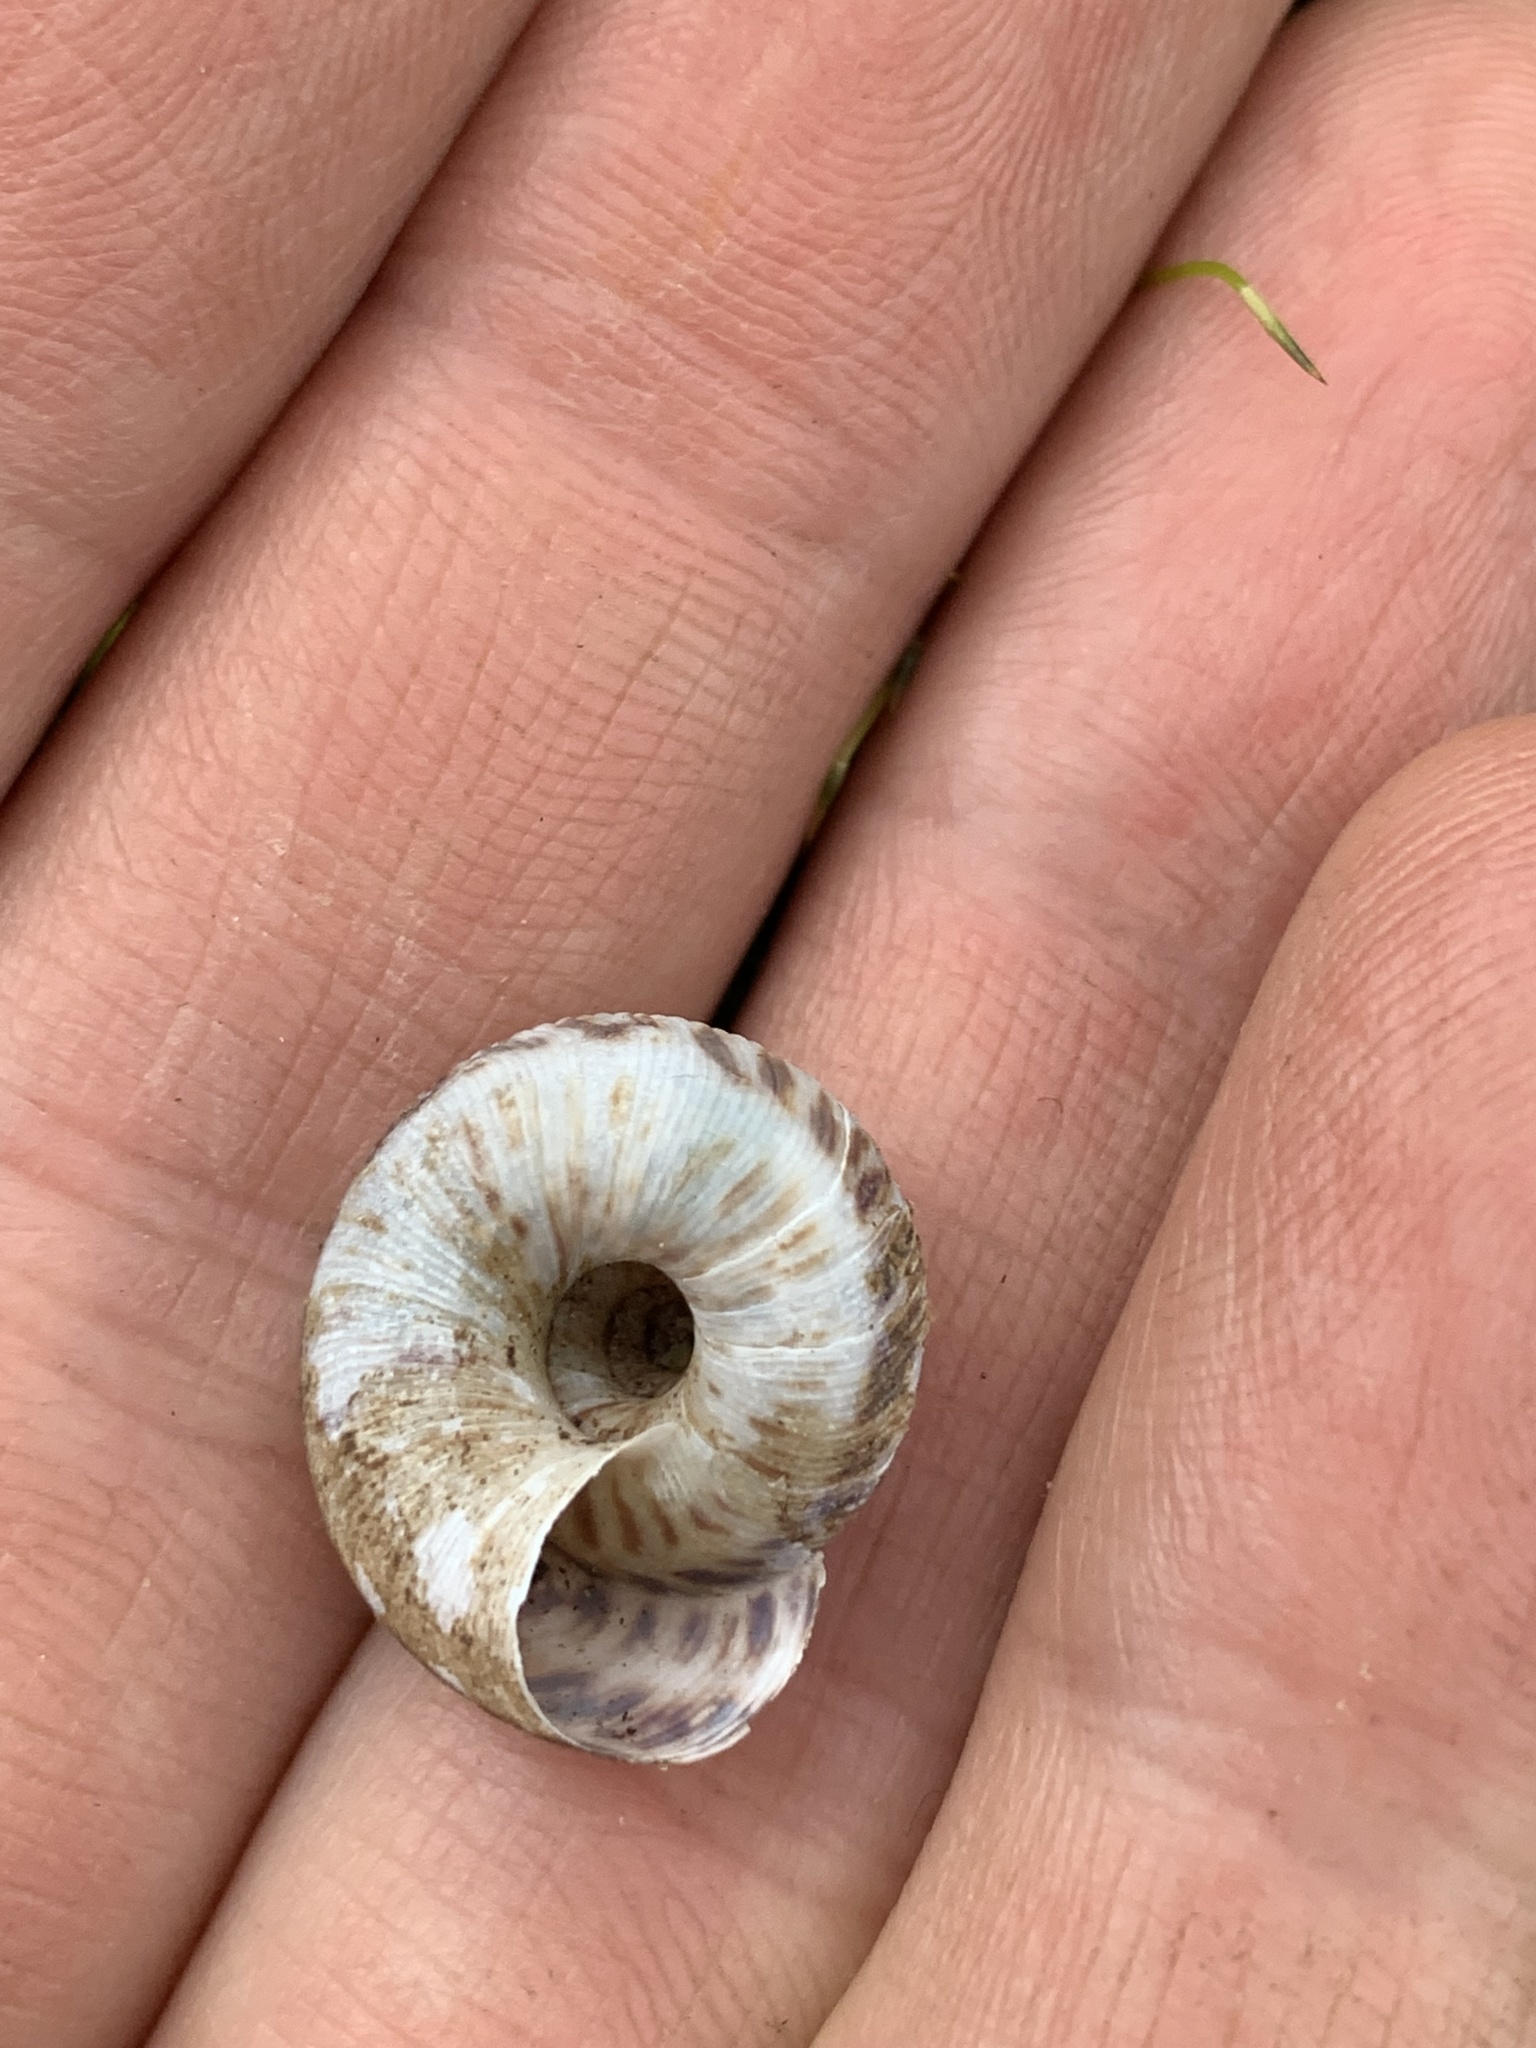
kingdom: Animalia
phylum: Mollusca
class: Gastropoda
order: Stylommatophora
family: Discidae
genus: Anguispira
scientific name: Anguispira alternata
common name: Flamed tigersnail
